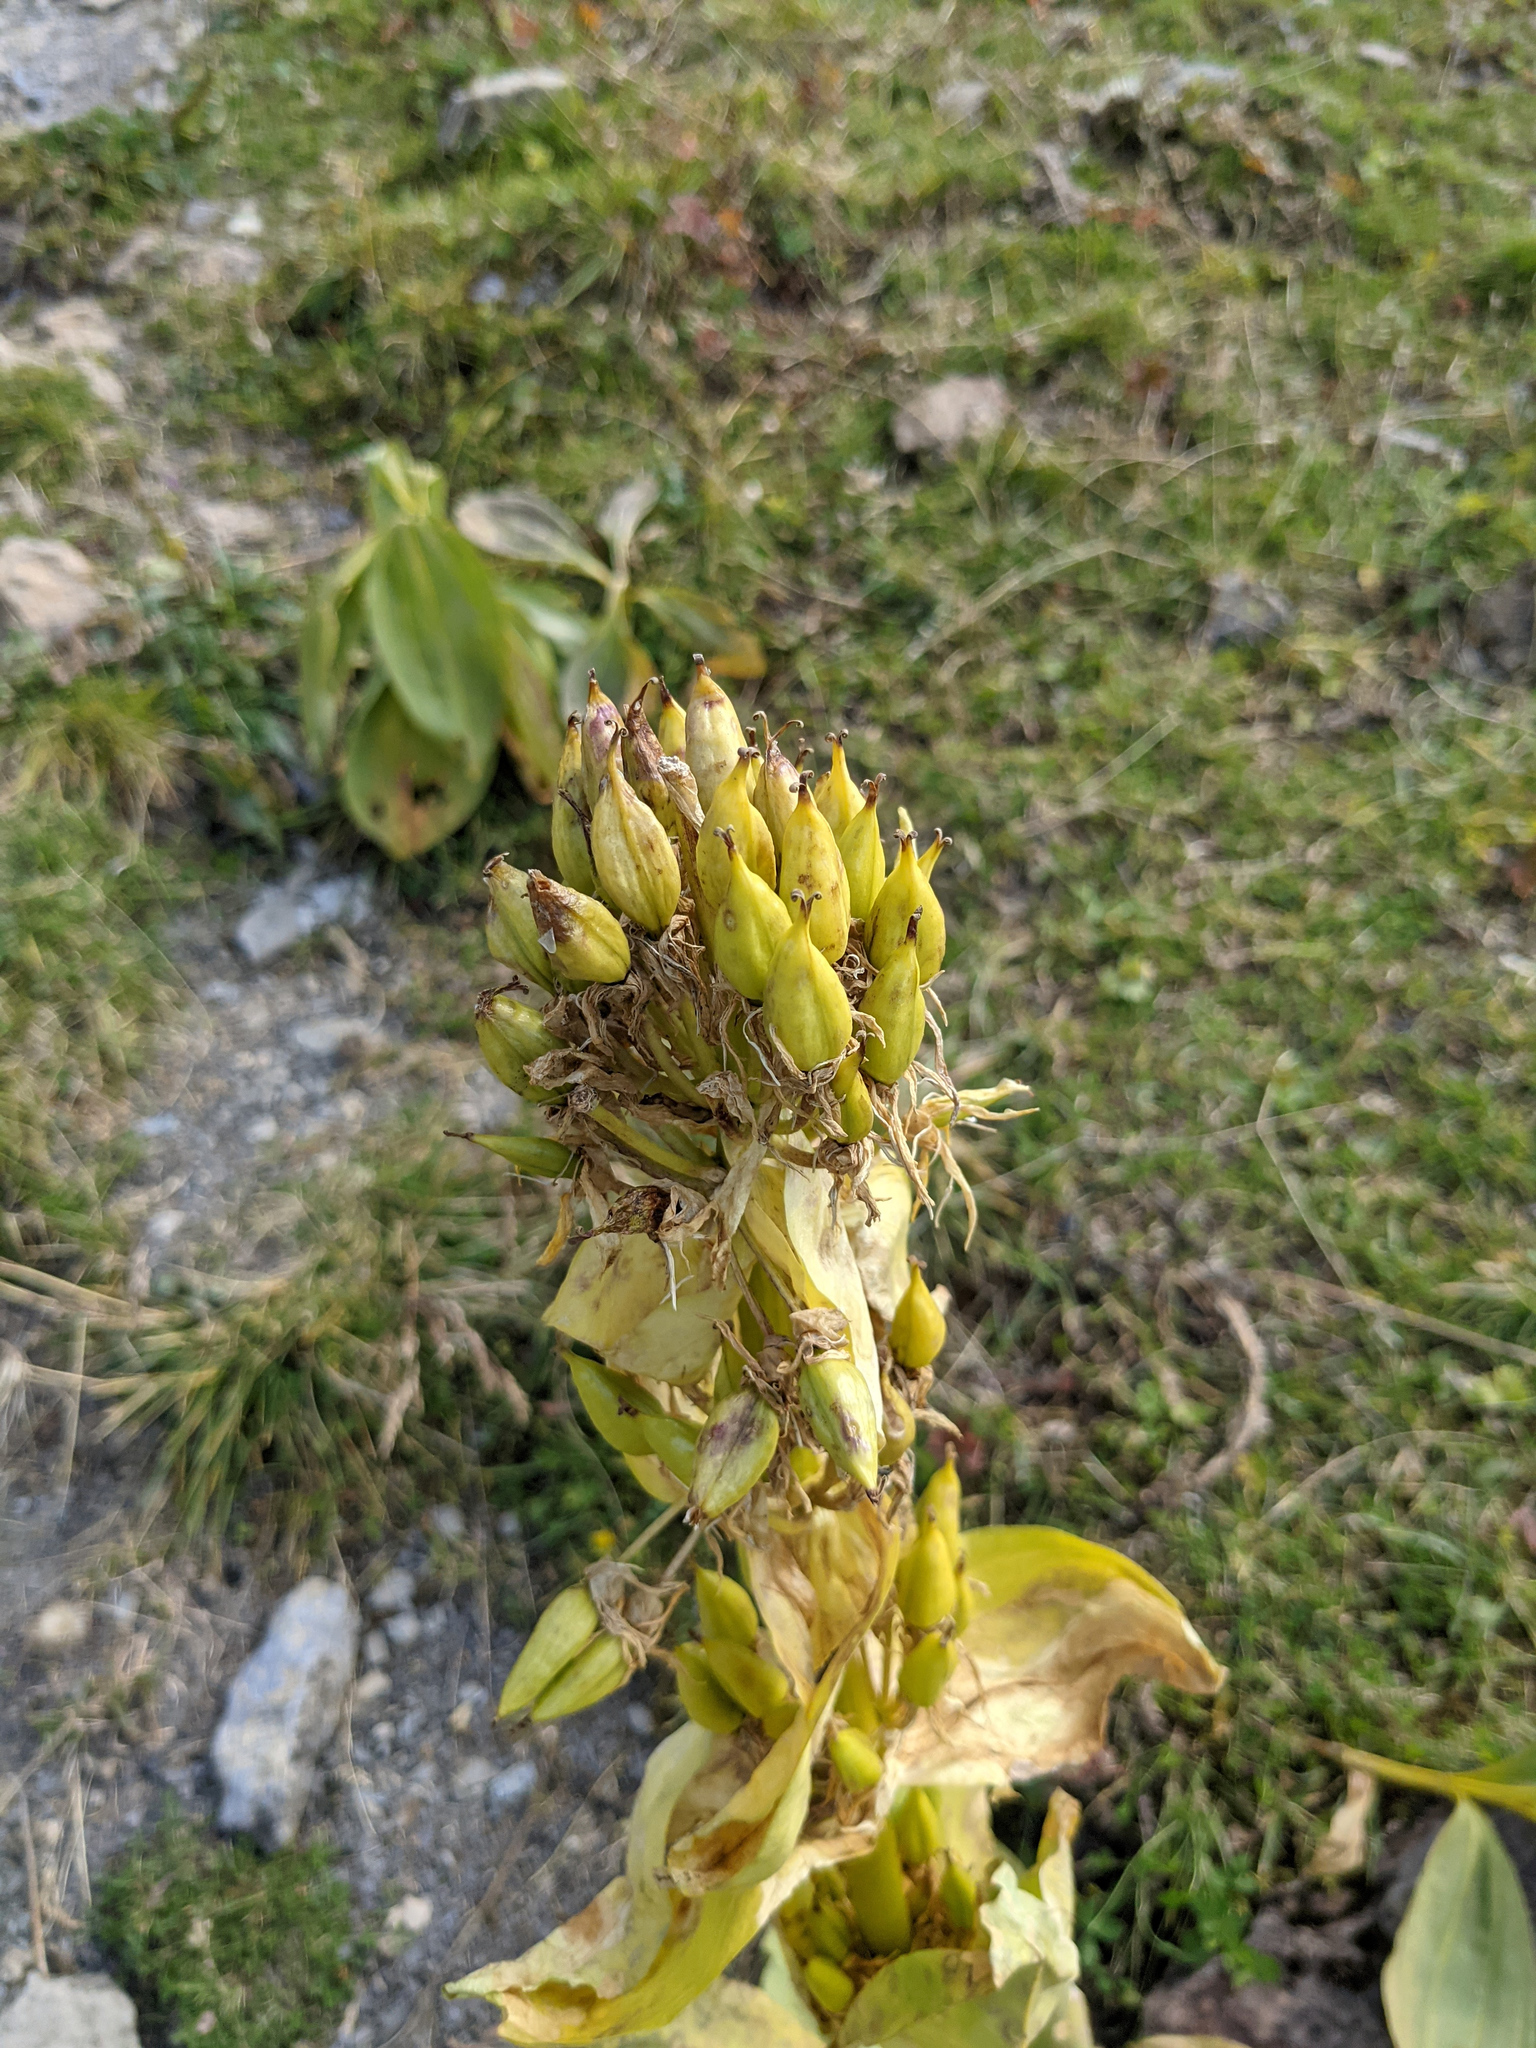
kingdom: Plantae
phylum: Tracheophyta
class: Magnoliopsida
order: Gentianales
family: Gentianaceae
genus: Gentiana
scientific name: Gentiana lutea
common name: Great yellow gentian
